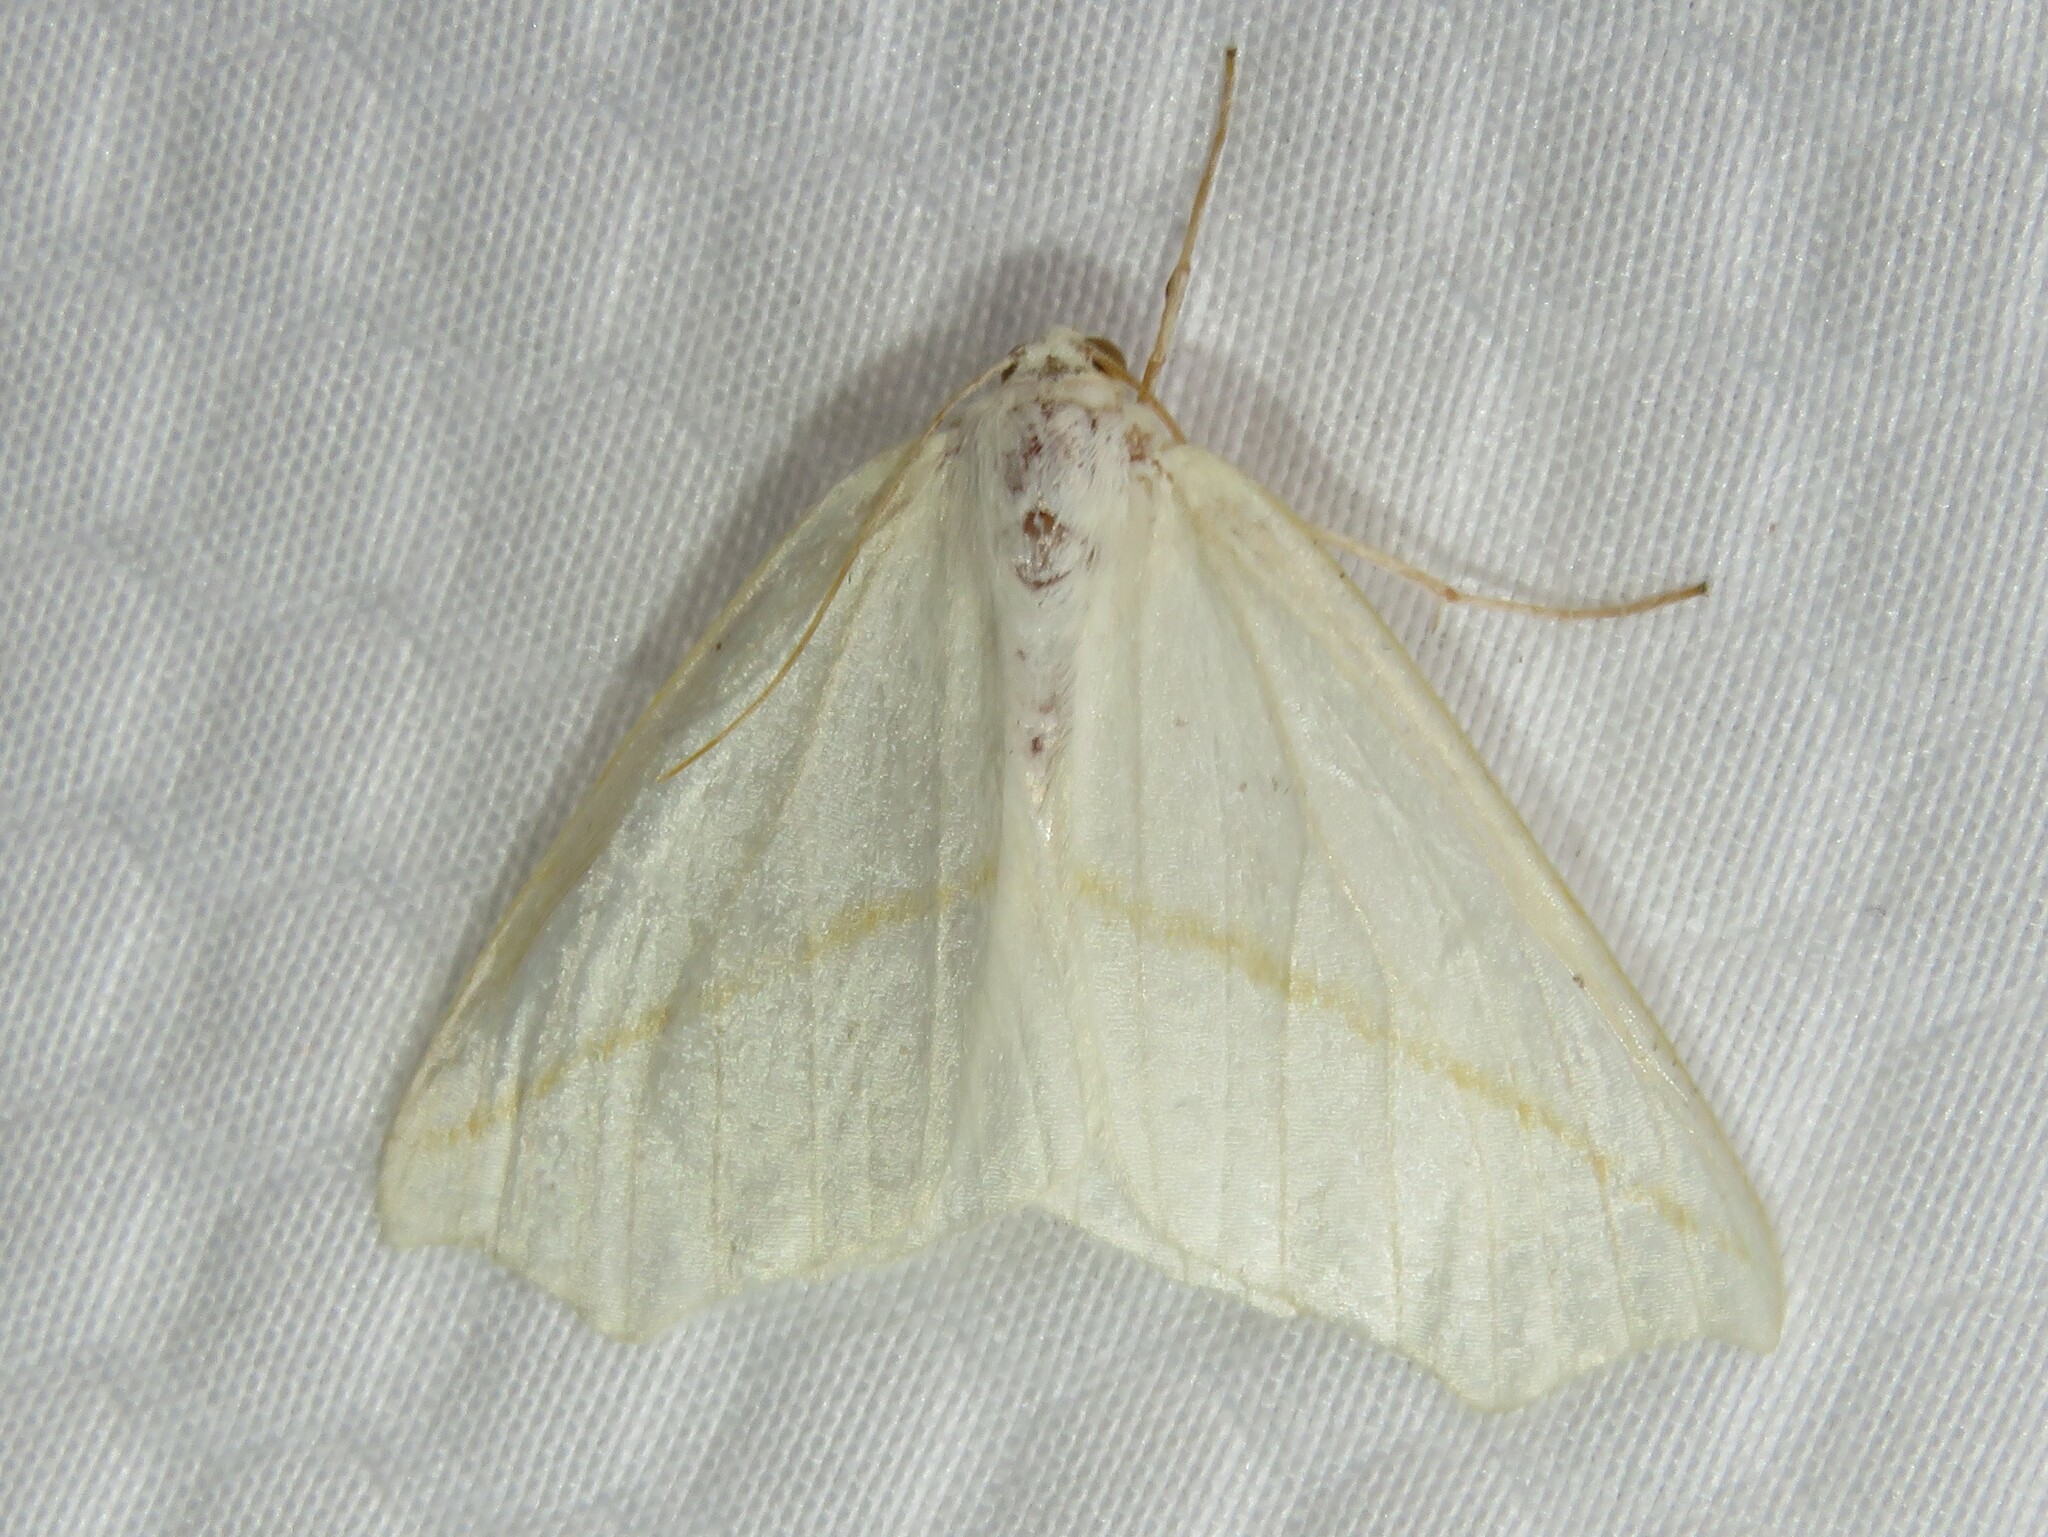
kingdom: Animalia
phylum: Arthropoda
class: Insecta
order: Lepidoptera
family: Geometridae
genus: Tetracis
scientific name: Tetracis cachexiata
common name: White slant-line
